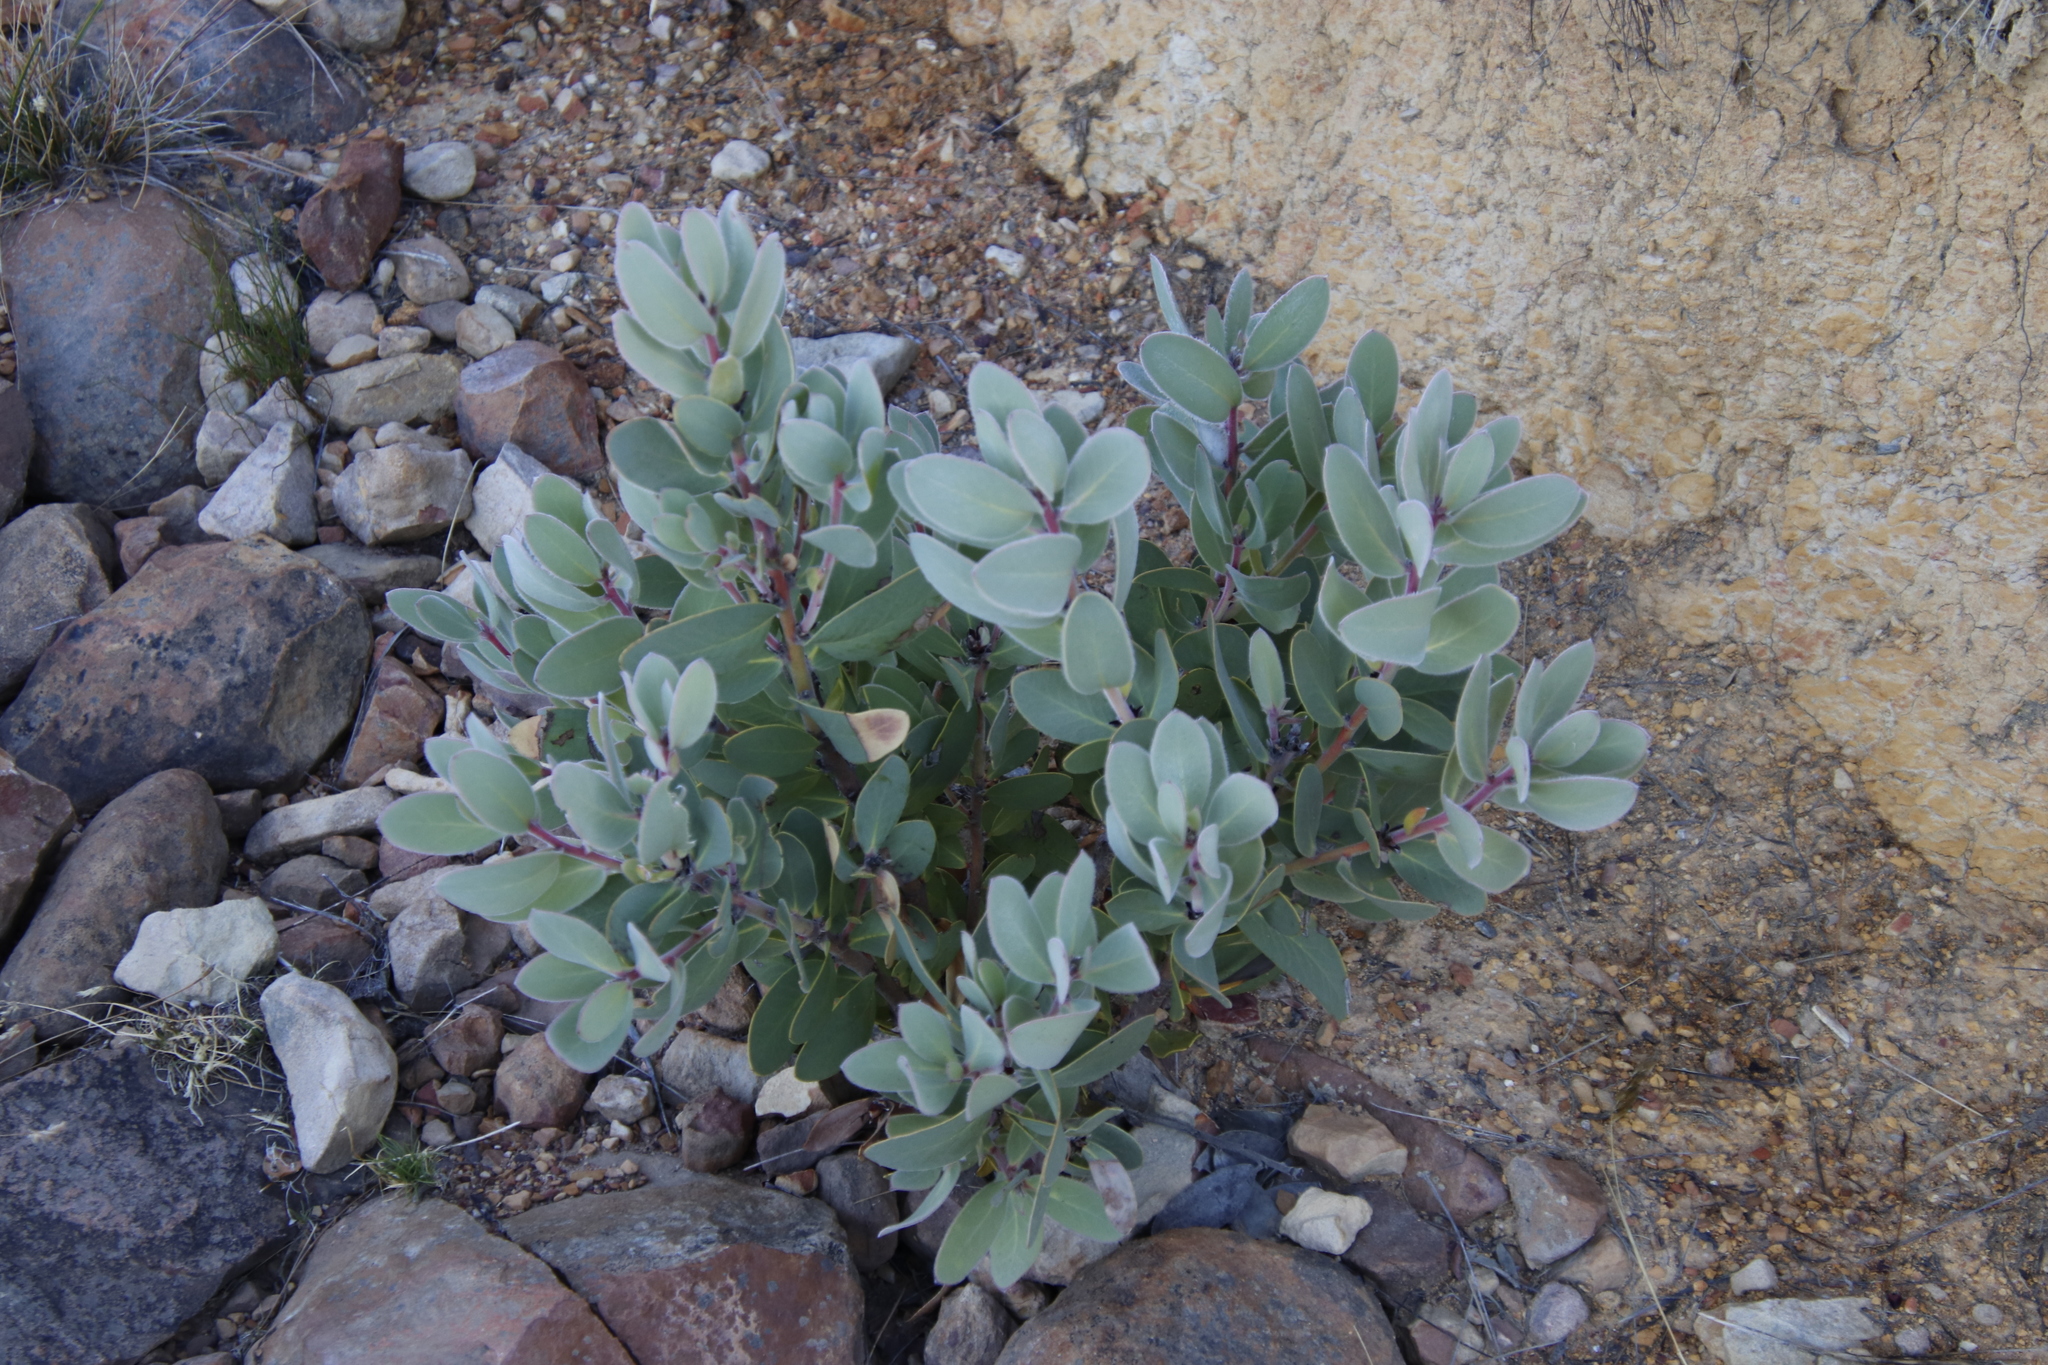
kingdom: Plantae
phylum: Tracheophyta
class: Magnoliopsida
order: Proteales
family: Proteaceae
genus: Protea
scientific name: Protea punctata
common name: Water sugarbush
